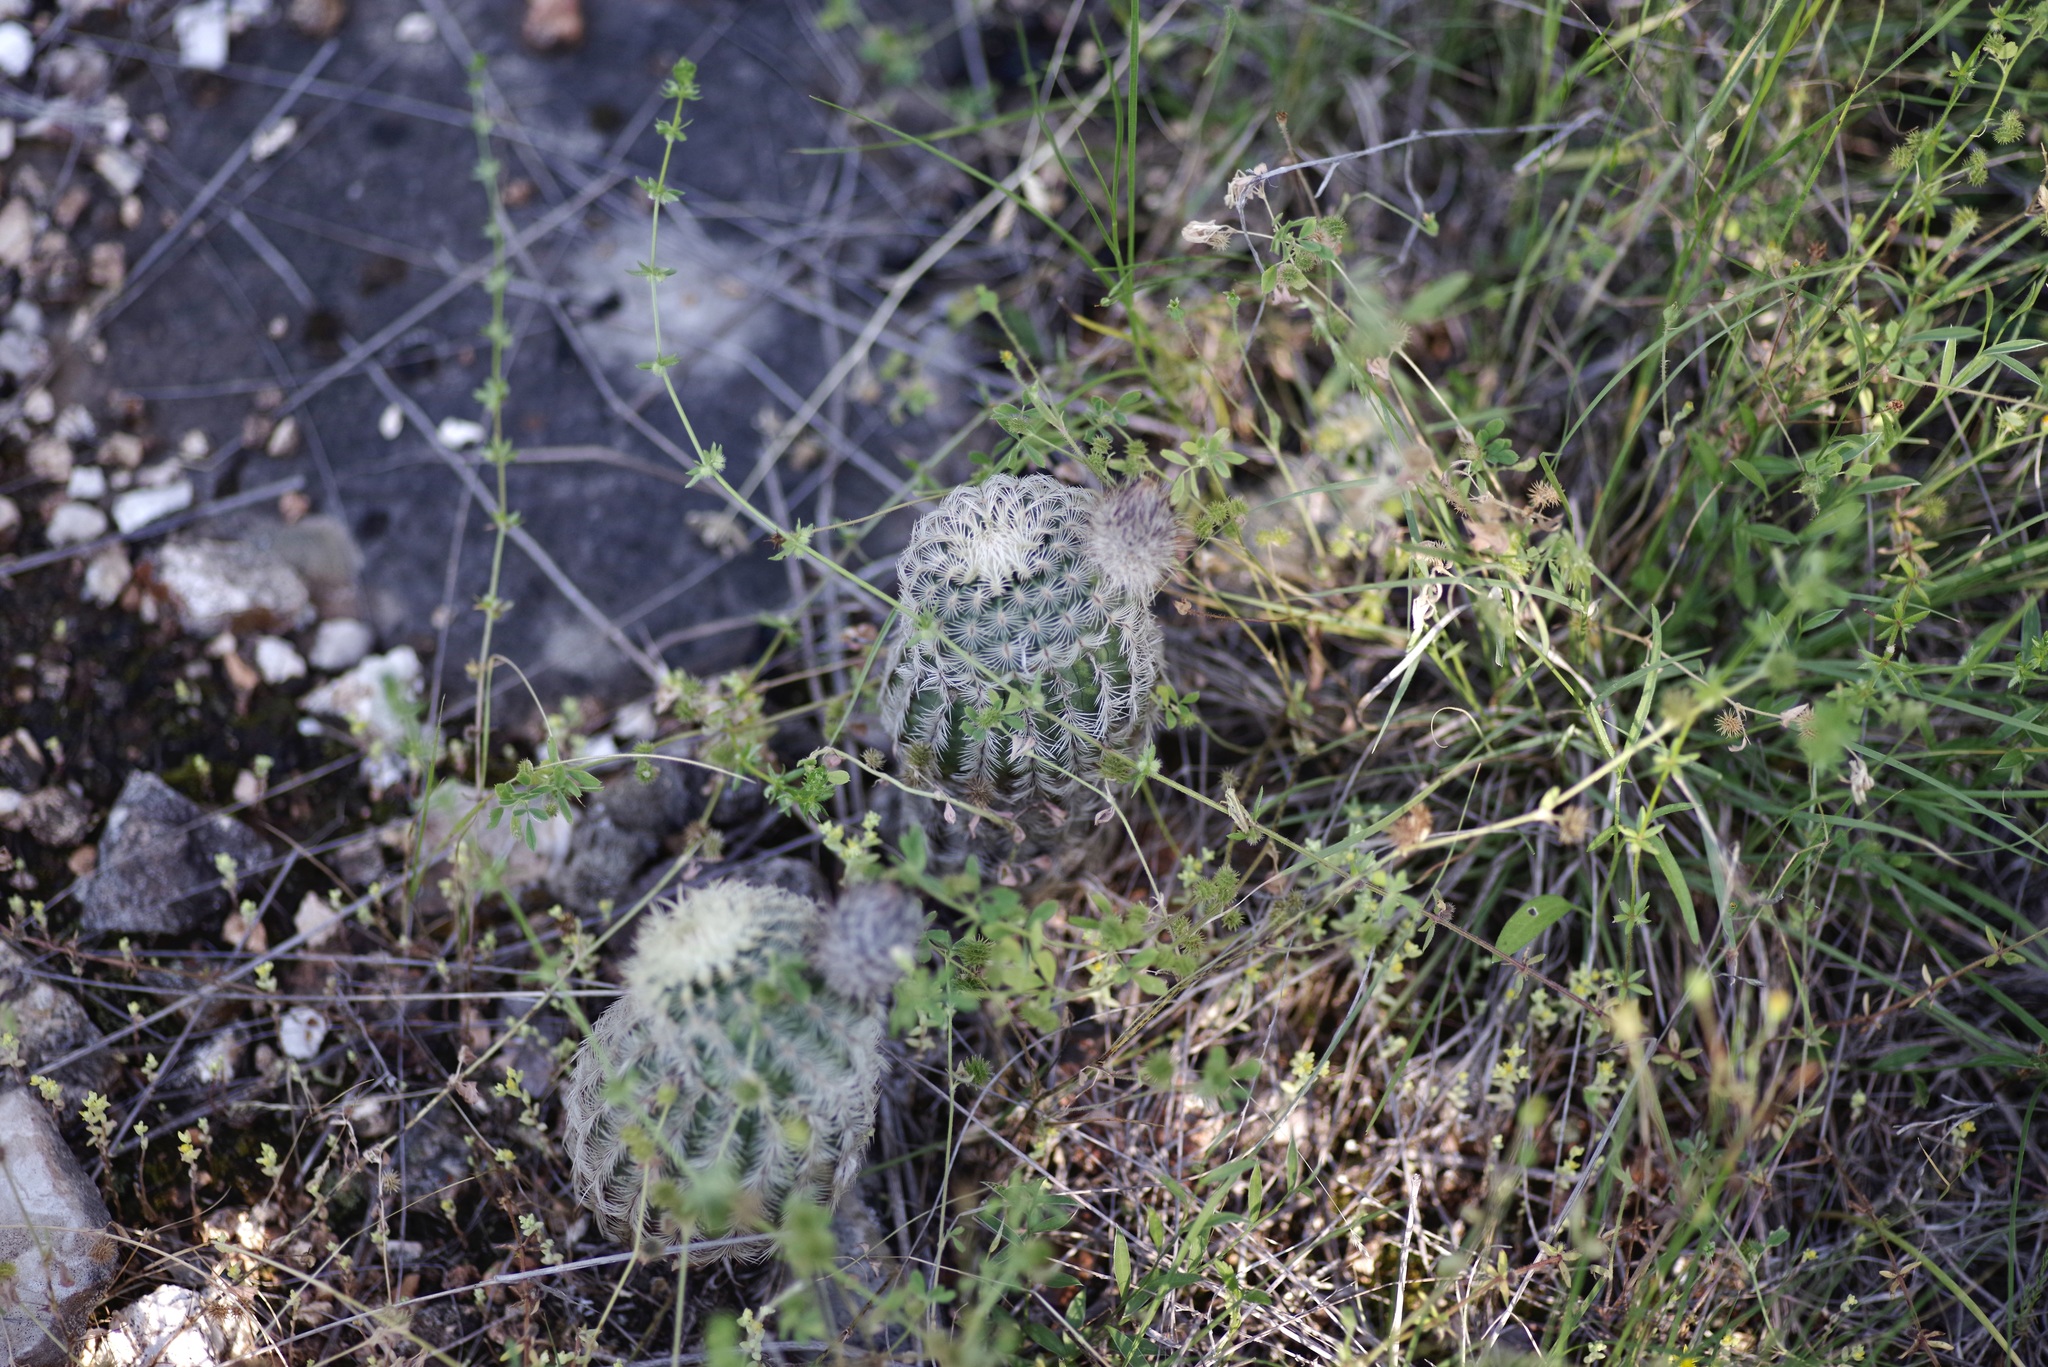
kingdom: Plantae
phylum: Tracheophyta
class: Magnoliopsida
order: Caryophyllales
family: Cactaceae
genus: Echinocereus
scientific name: Echinocereus reichenbachii
